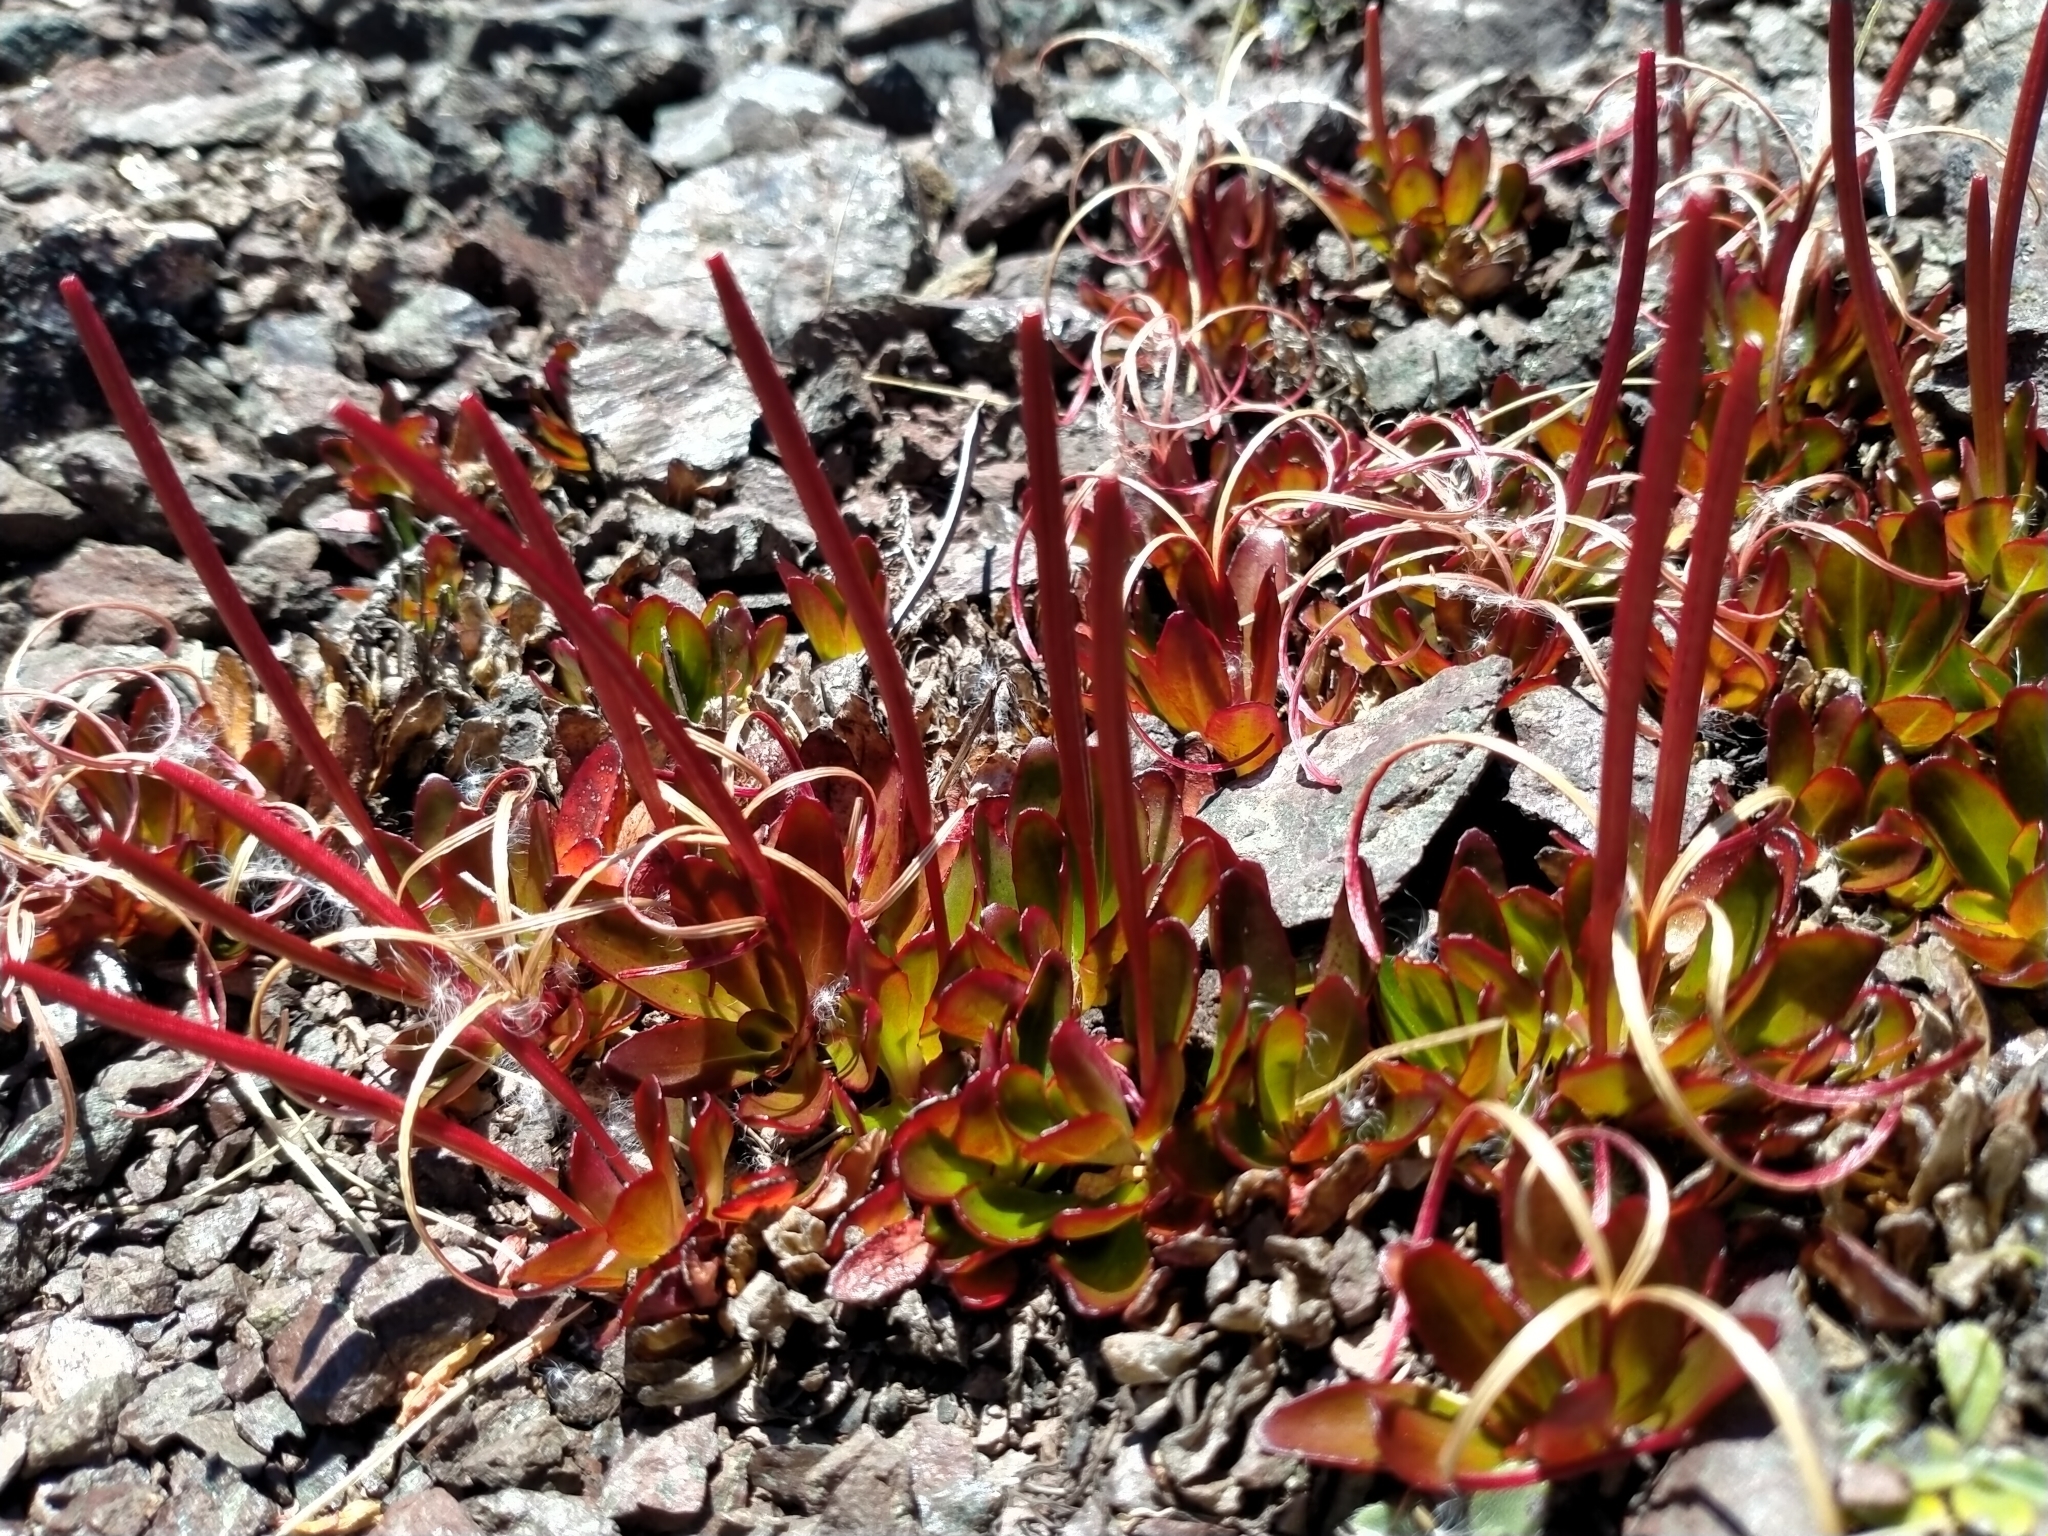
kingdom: Plantae
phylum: Tracheophyta
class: Magnoliopsida
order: Myrtales
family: Onagraceae
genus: Epilobium
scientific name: Epilobium crassum
